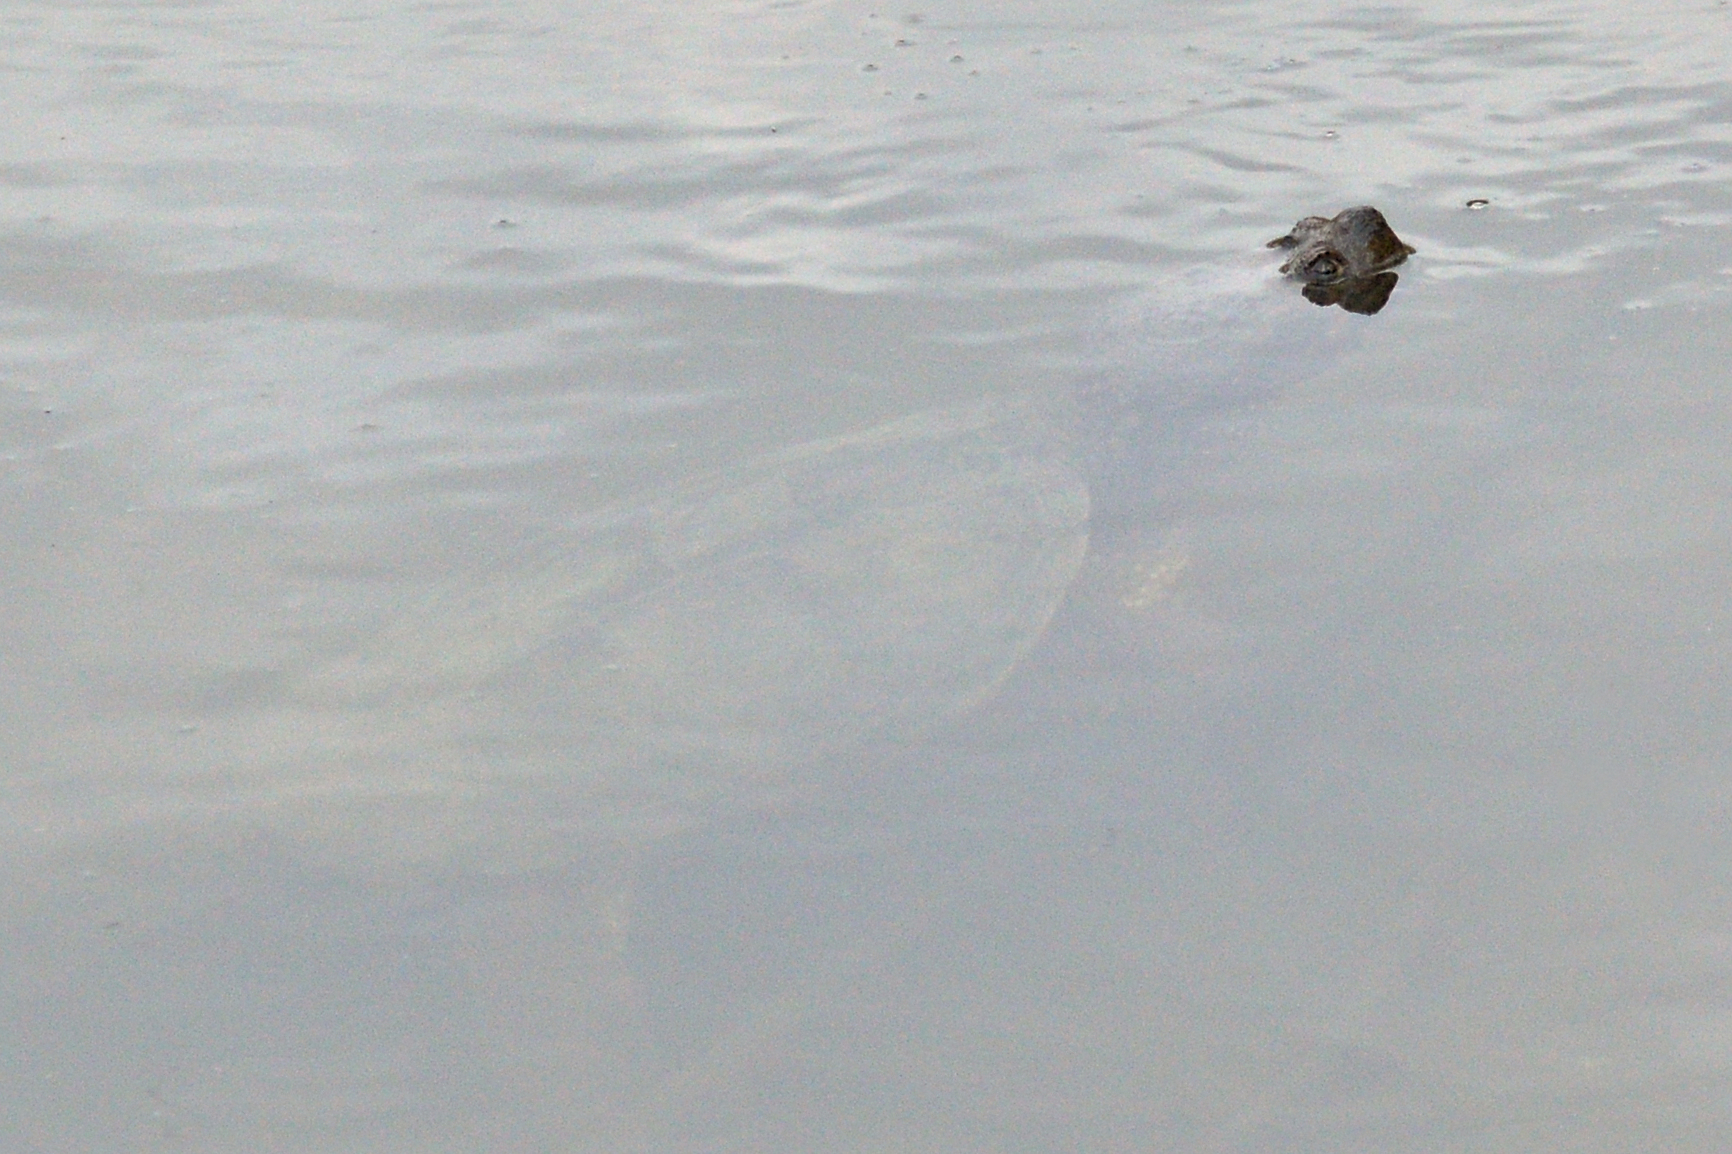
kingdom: Animalia
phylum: Chordata
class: Testudines
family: Chelydridae
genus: Chelydra
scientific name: Chelydra serpentina
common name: Common snapping turtle
